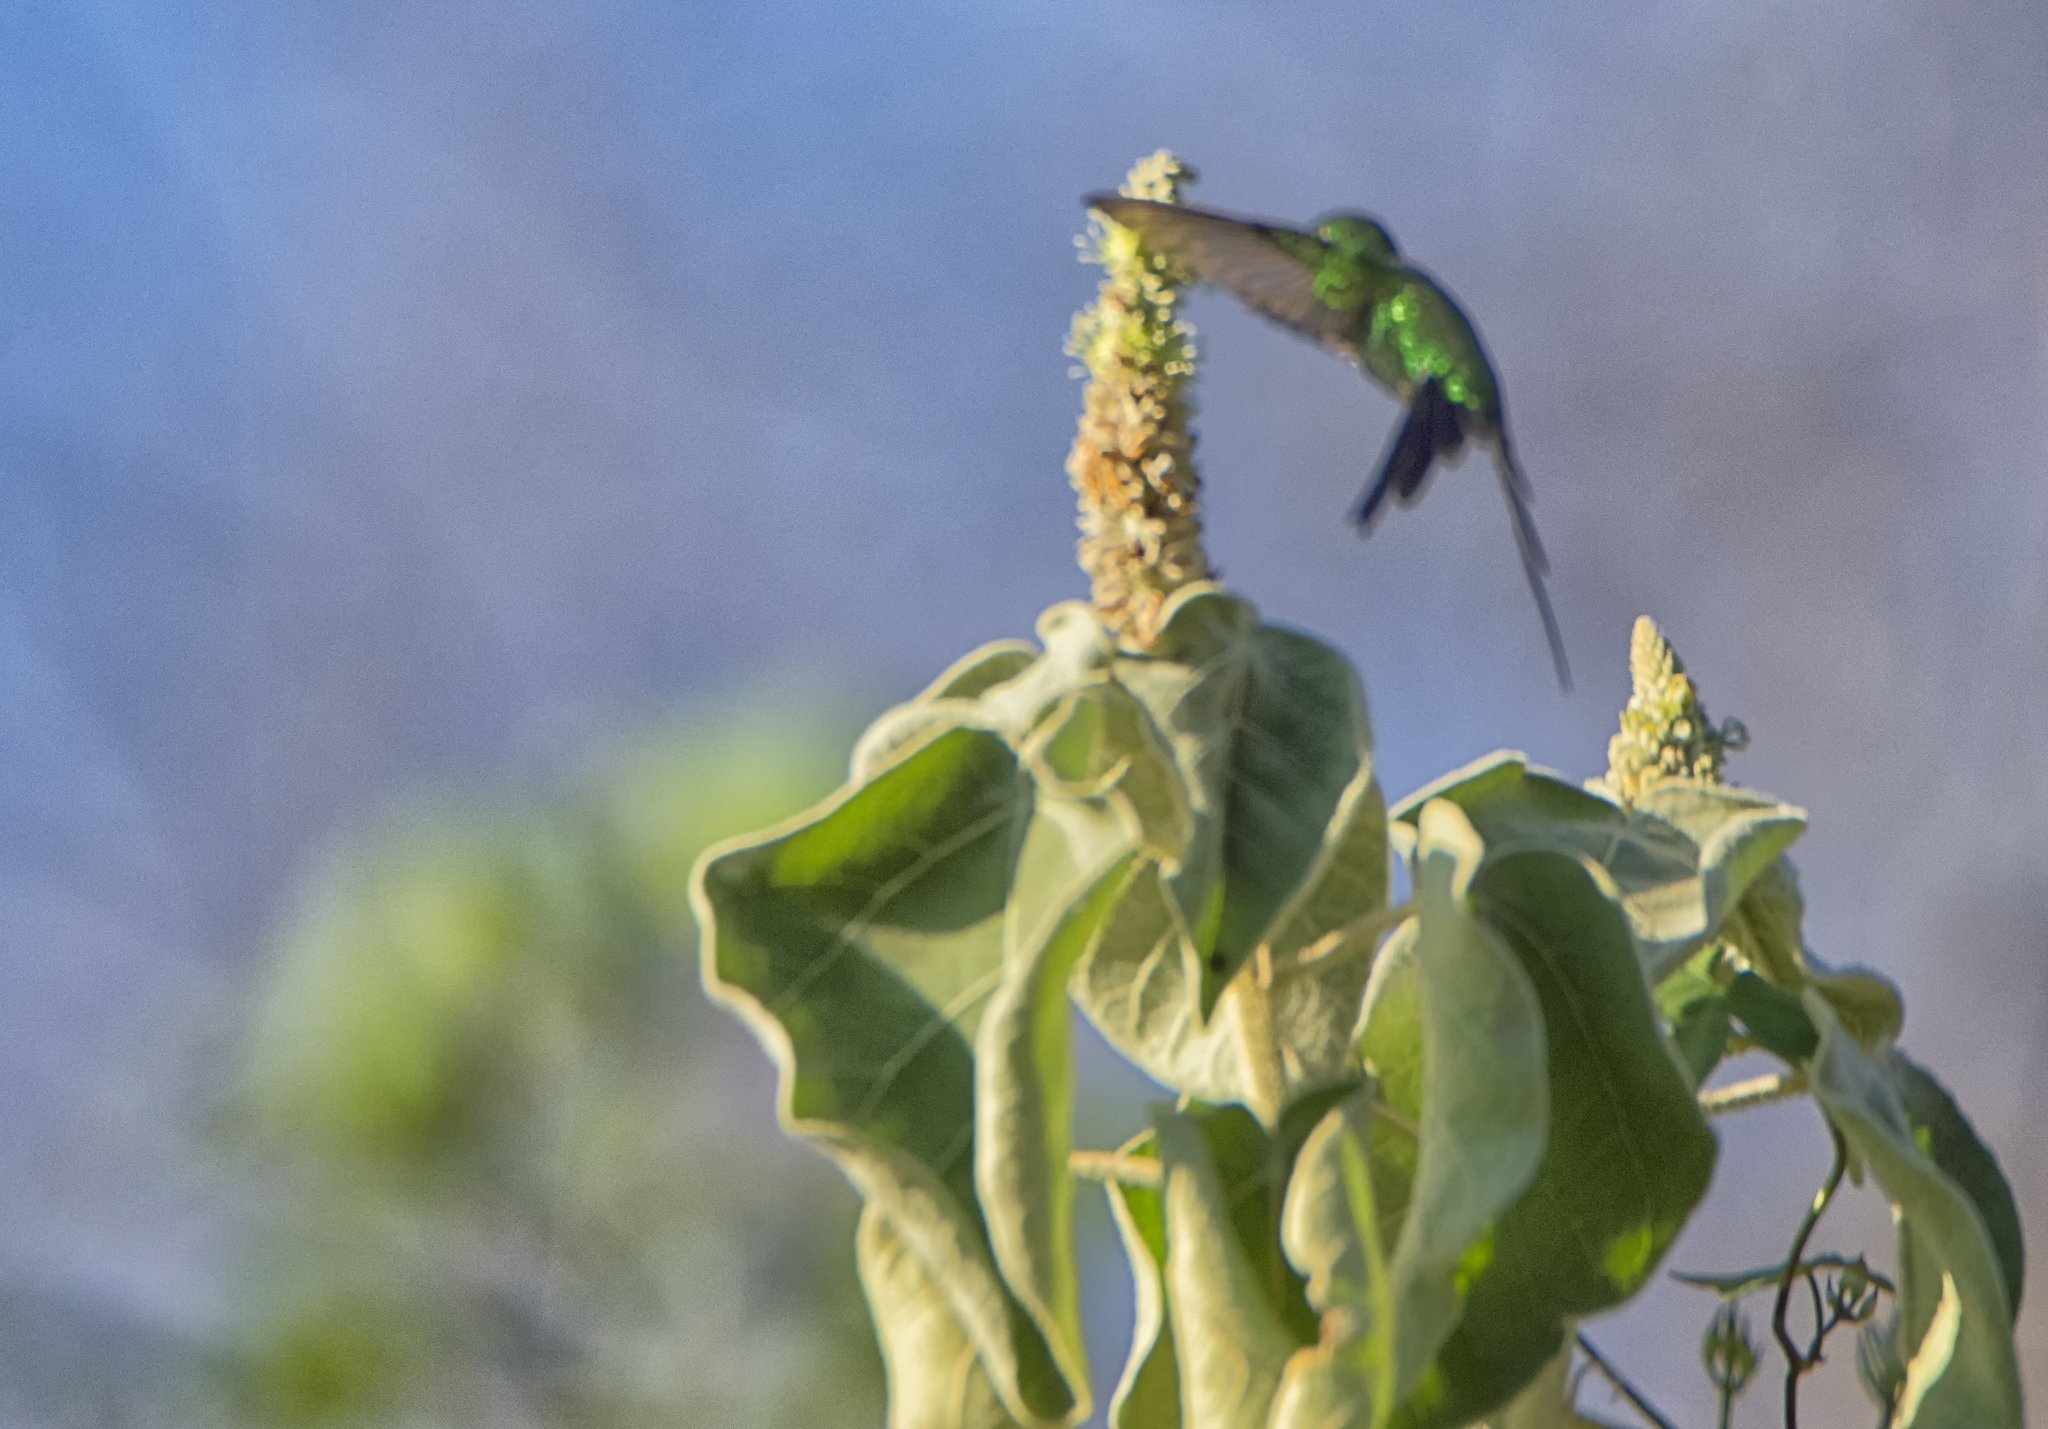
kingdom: Animalia
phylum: Chordata
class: Aves
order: Apodiformes
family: Trochilidae
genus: Cynanthus
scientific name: Cynanthus auriceps
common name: Golden-crowned emerald
